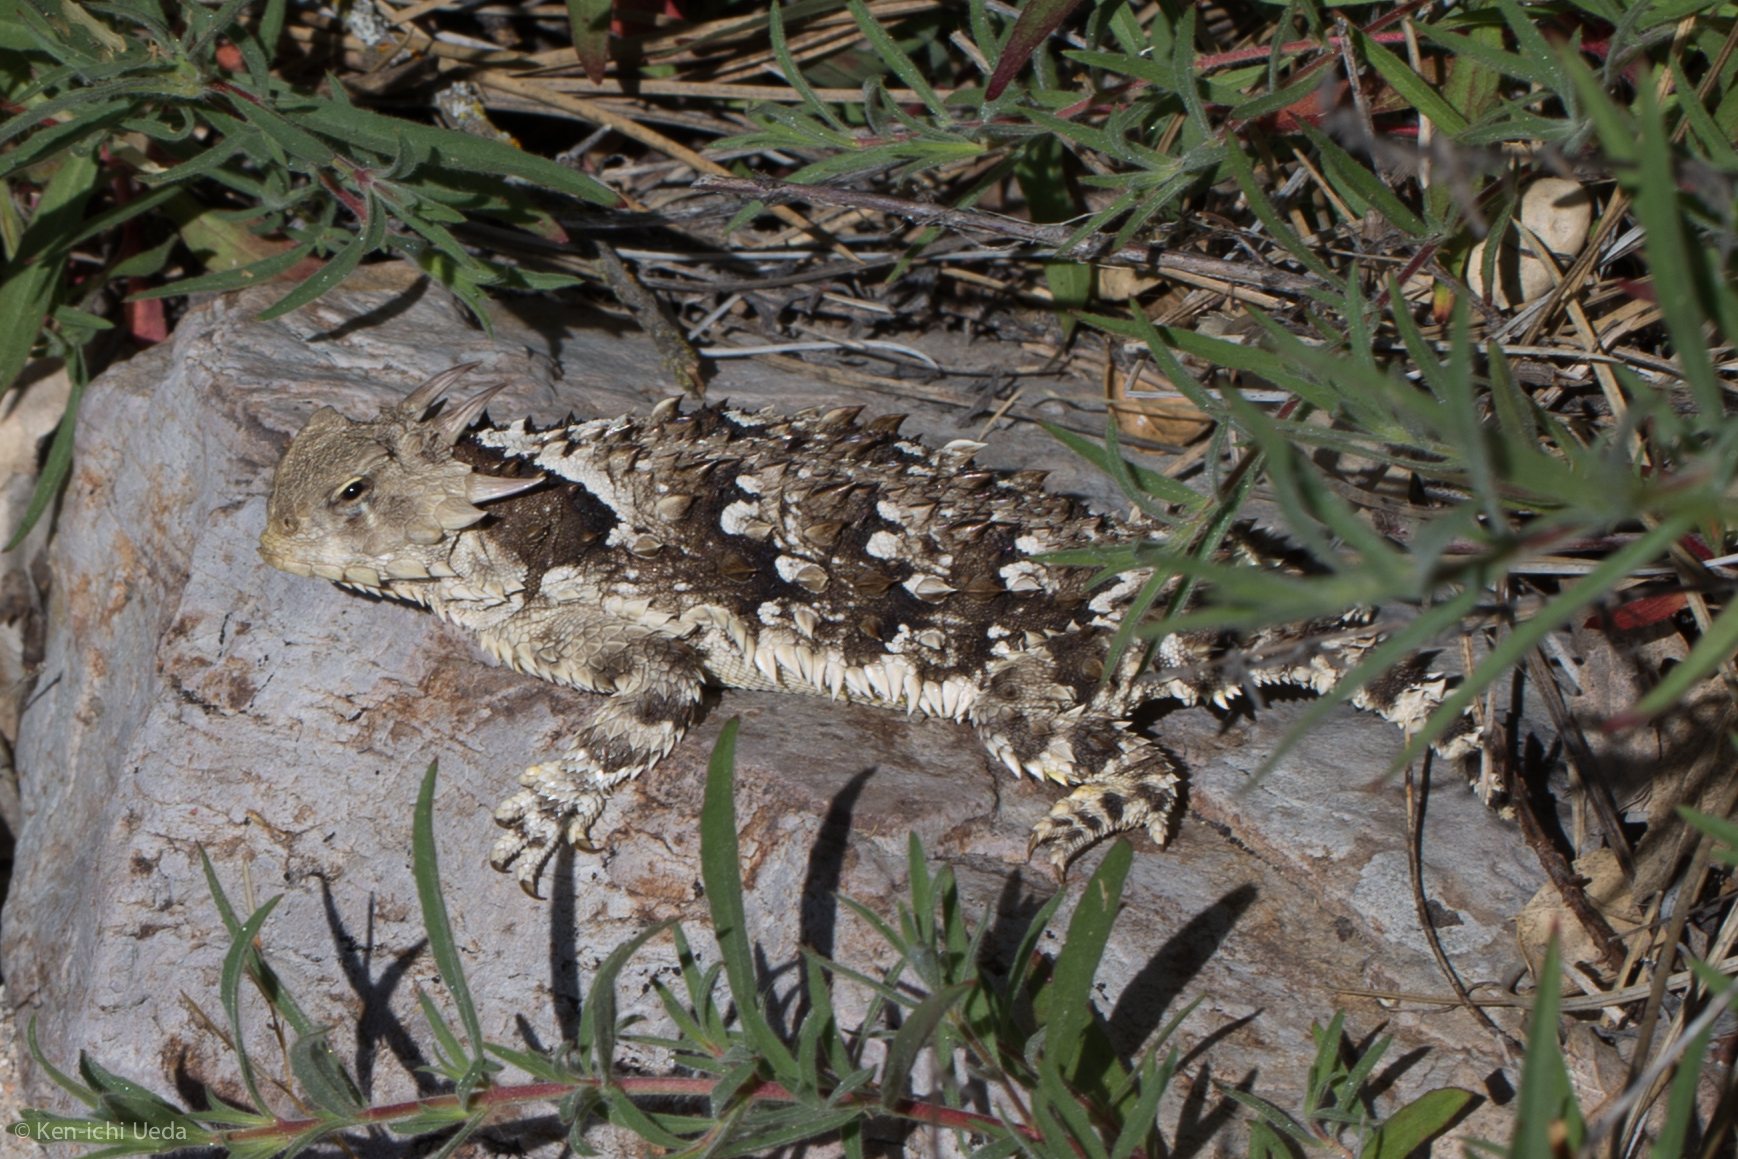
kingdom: Animalia
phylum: Chordata
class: Squamata
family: Phrynosomatidae
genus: Phrynosoma
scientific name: Phrynosoma blainvillii
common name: San diego horned lizard
